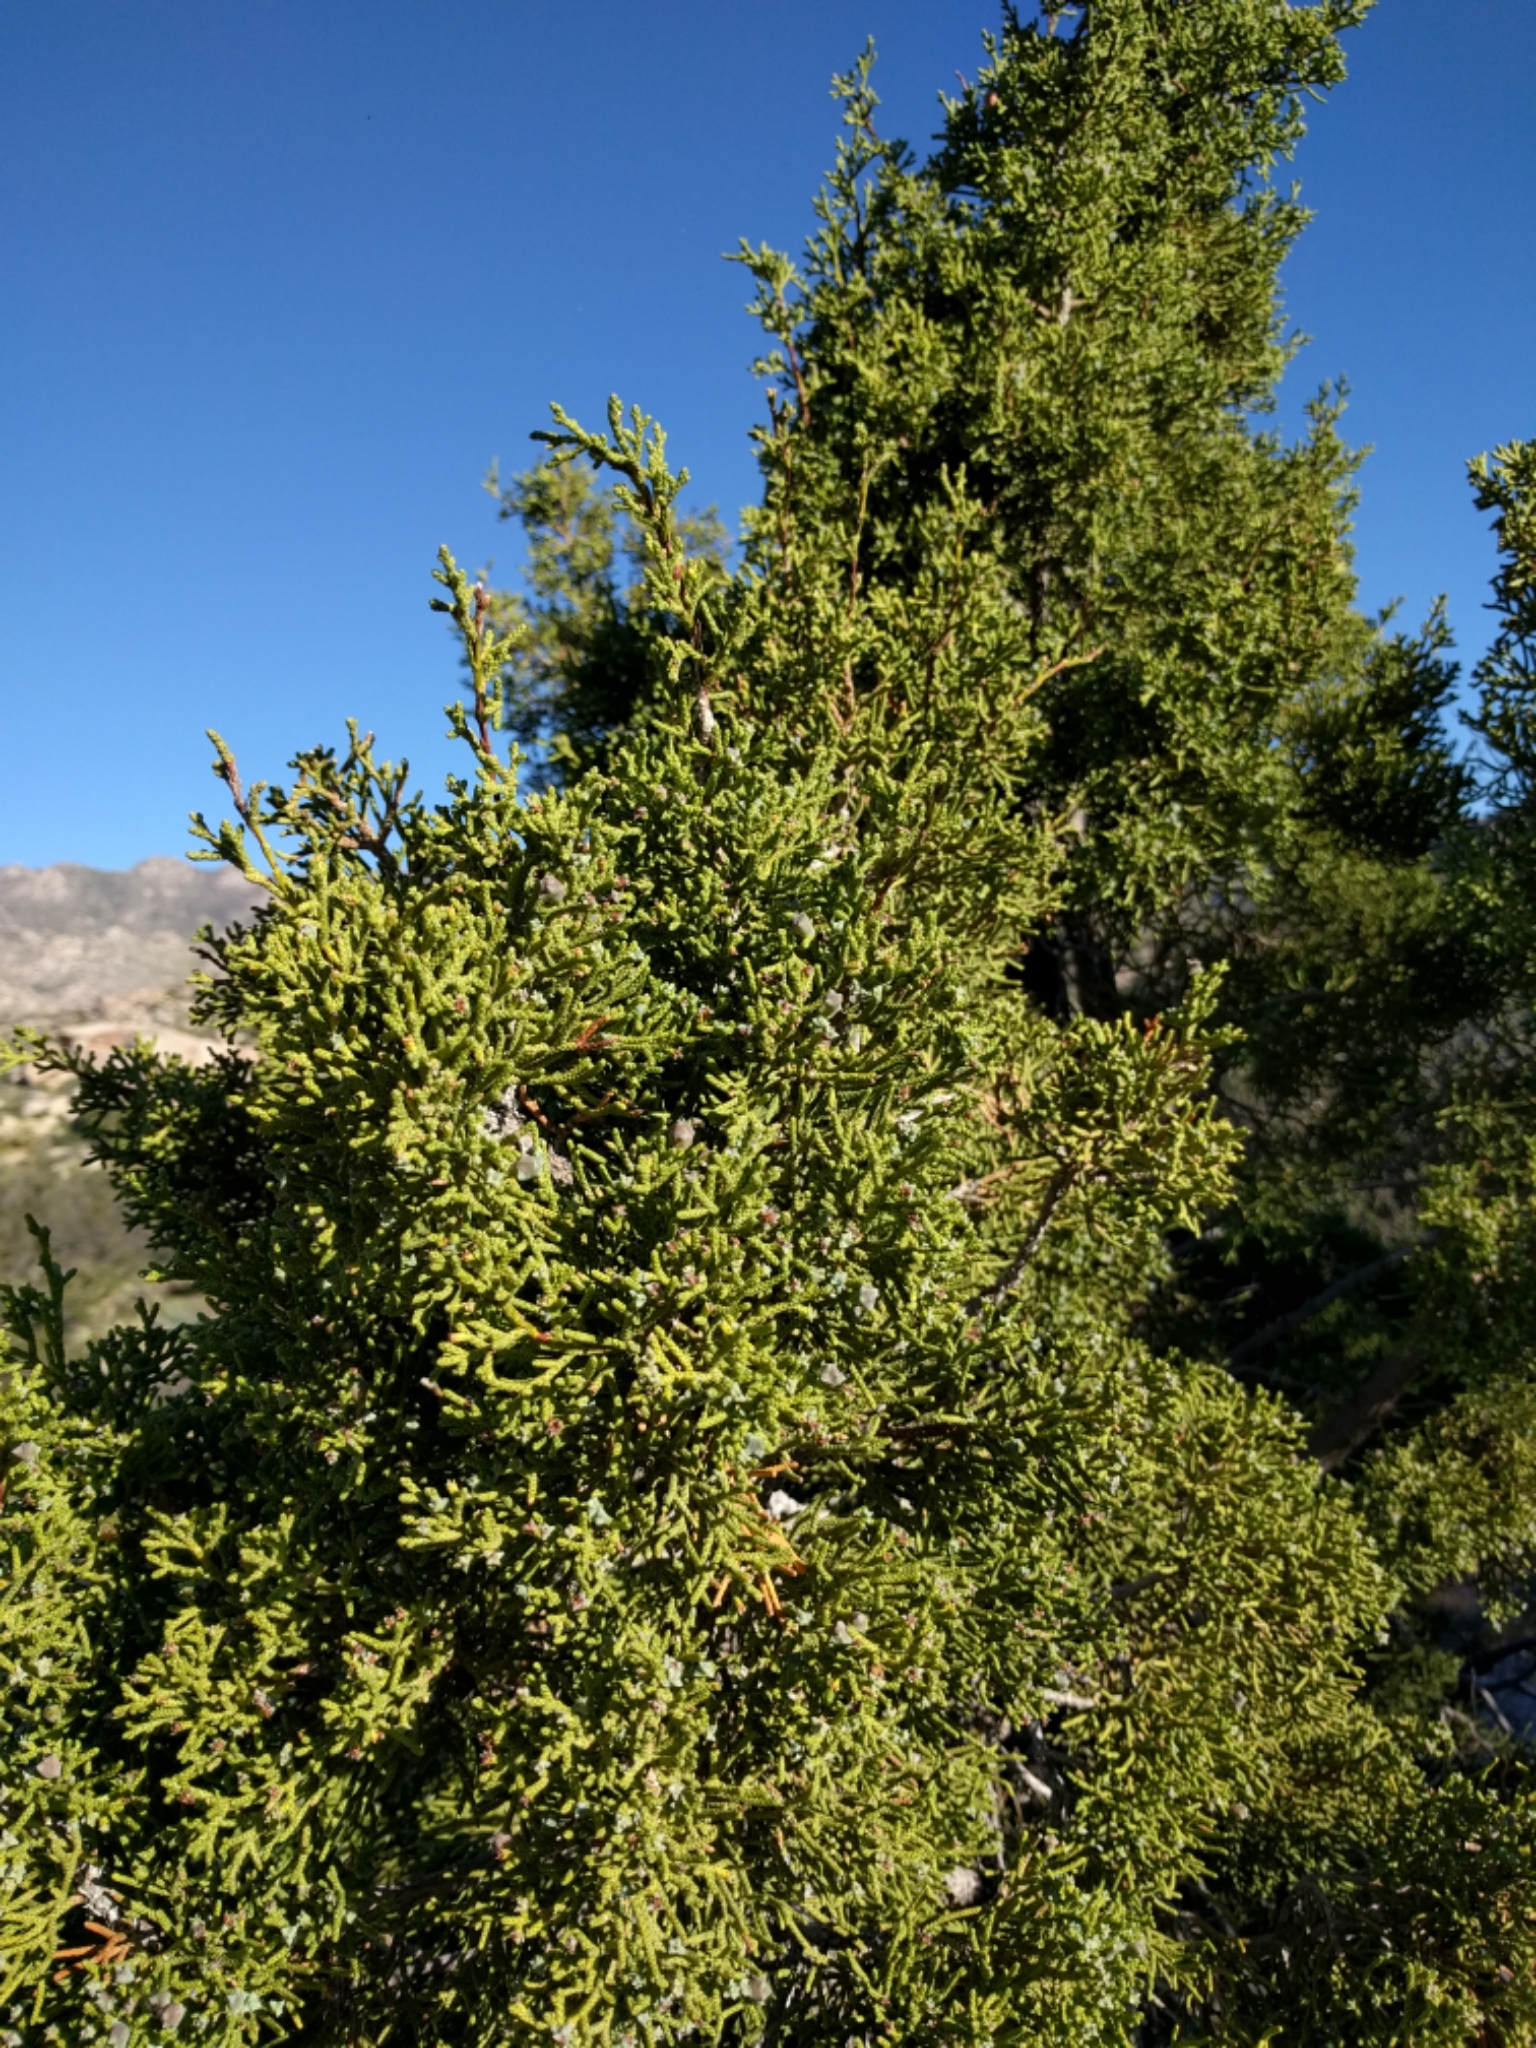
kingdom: Plantae
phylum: Tracheophyta
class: Pinopsida
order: Pinales
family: Cupressaceae
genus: Juniperus
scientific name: Juniperus californica
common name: California juniper
